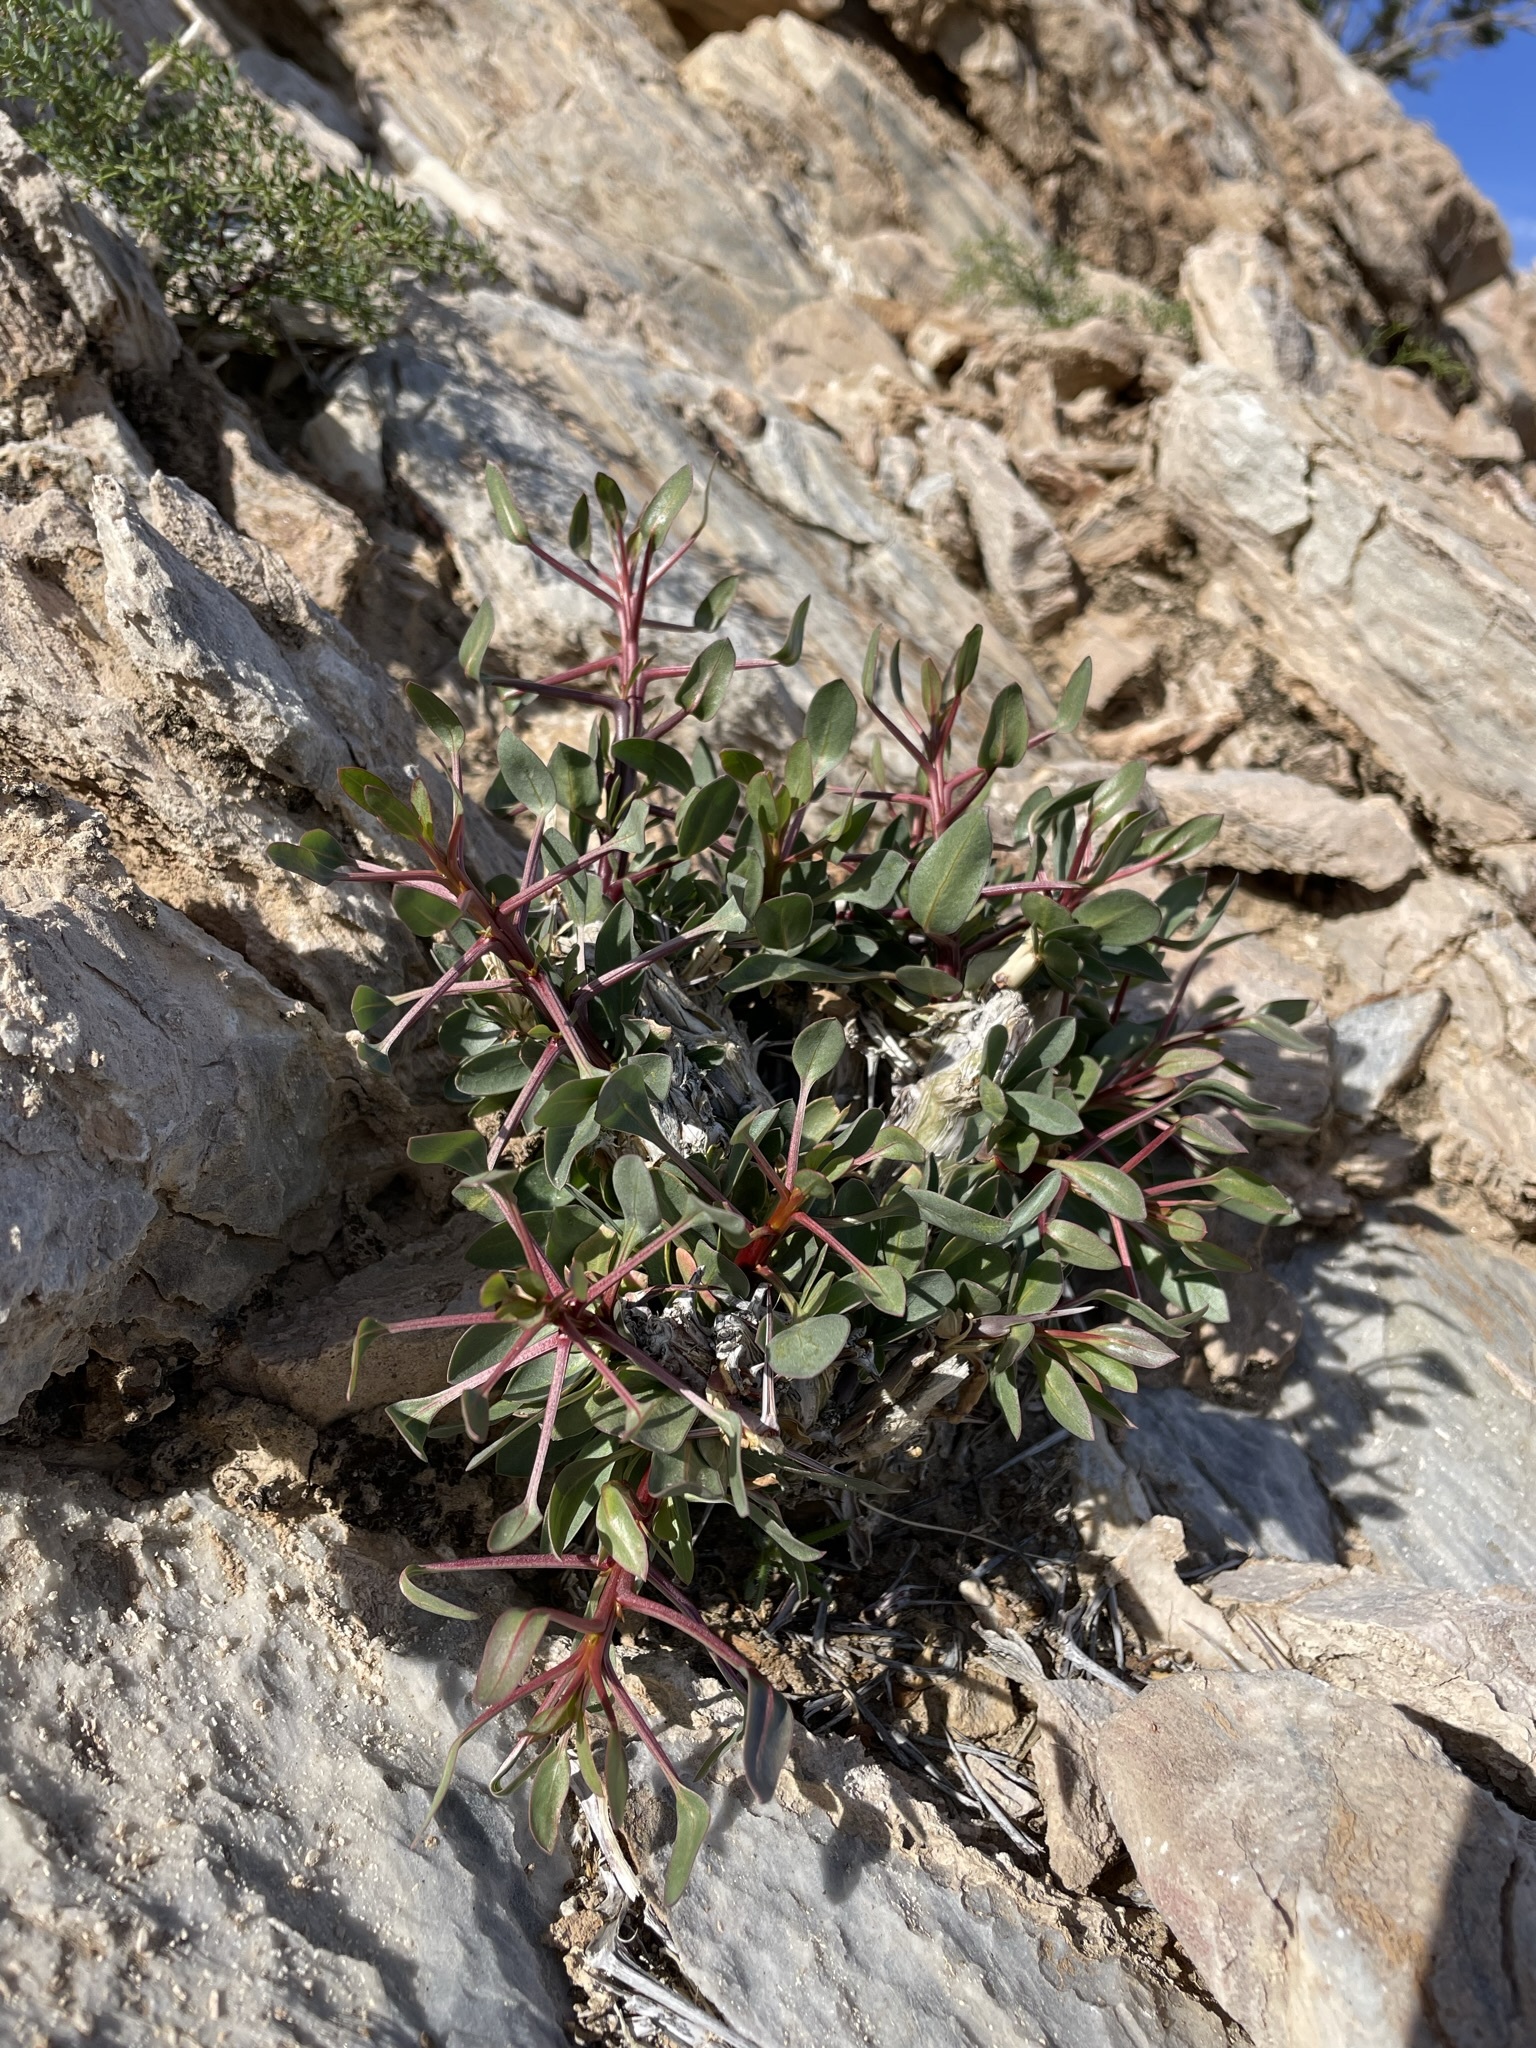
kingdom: Plantae
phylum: Tracheophyta
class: Magnoliopsida
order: Ericales
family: Fouquieriaceae
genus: Fouquieria
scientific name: Fouquieria splendens
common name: Vine-cactus
